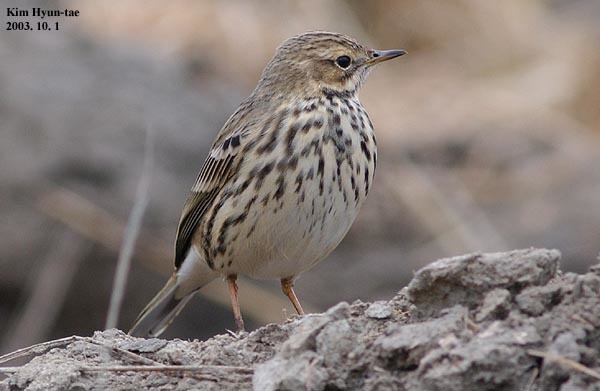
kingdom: Animalia
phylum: Chordata
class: Aves
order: Passeriformes
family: Motacillidae
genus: Anthus
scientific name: Anthus cervinus
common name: Red-throated pipit
